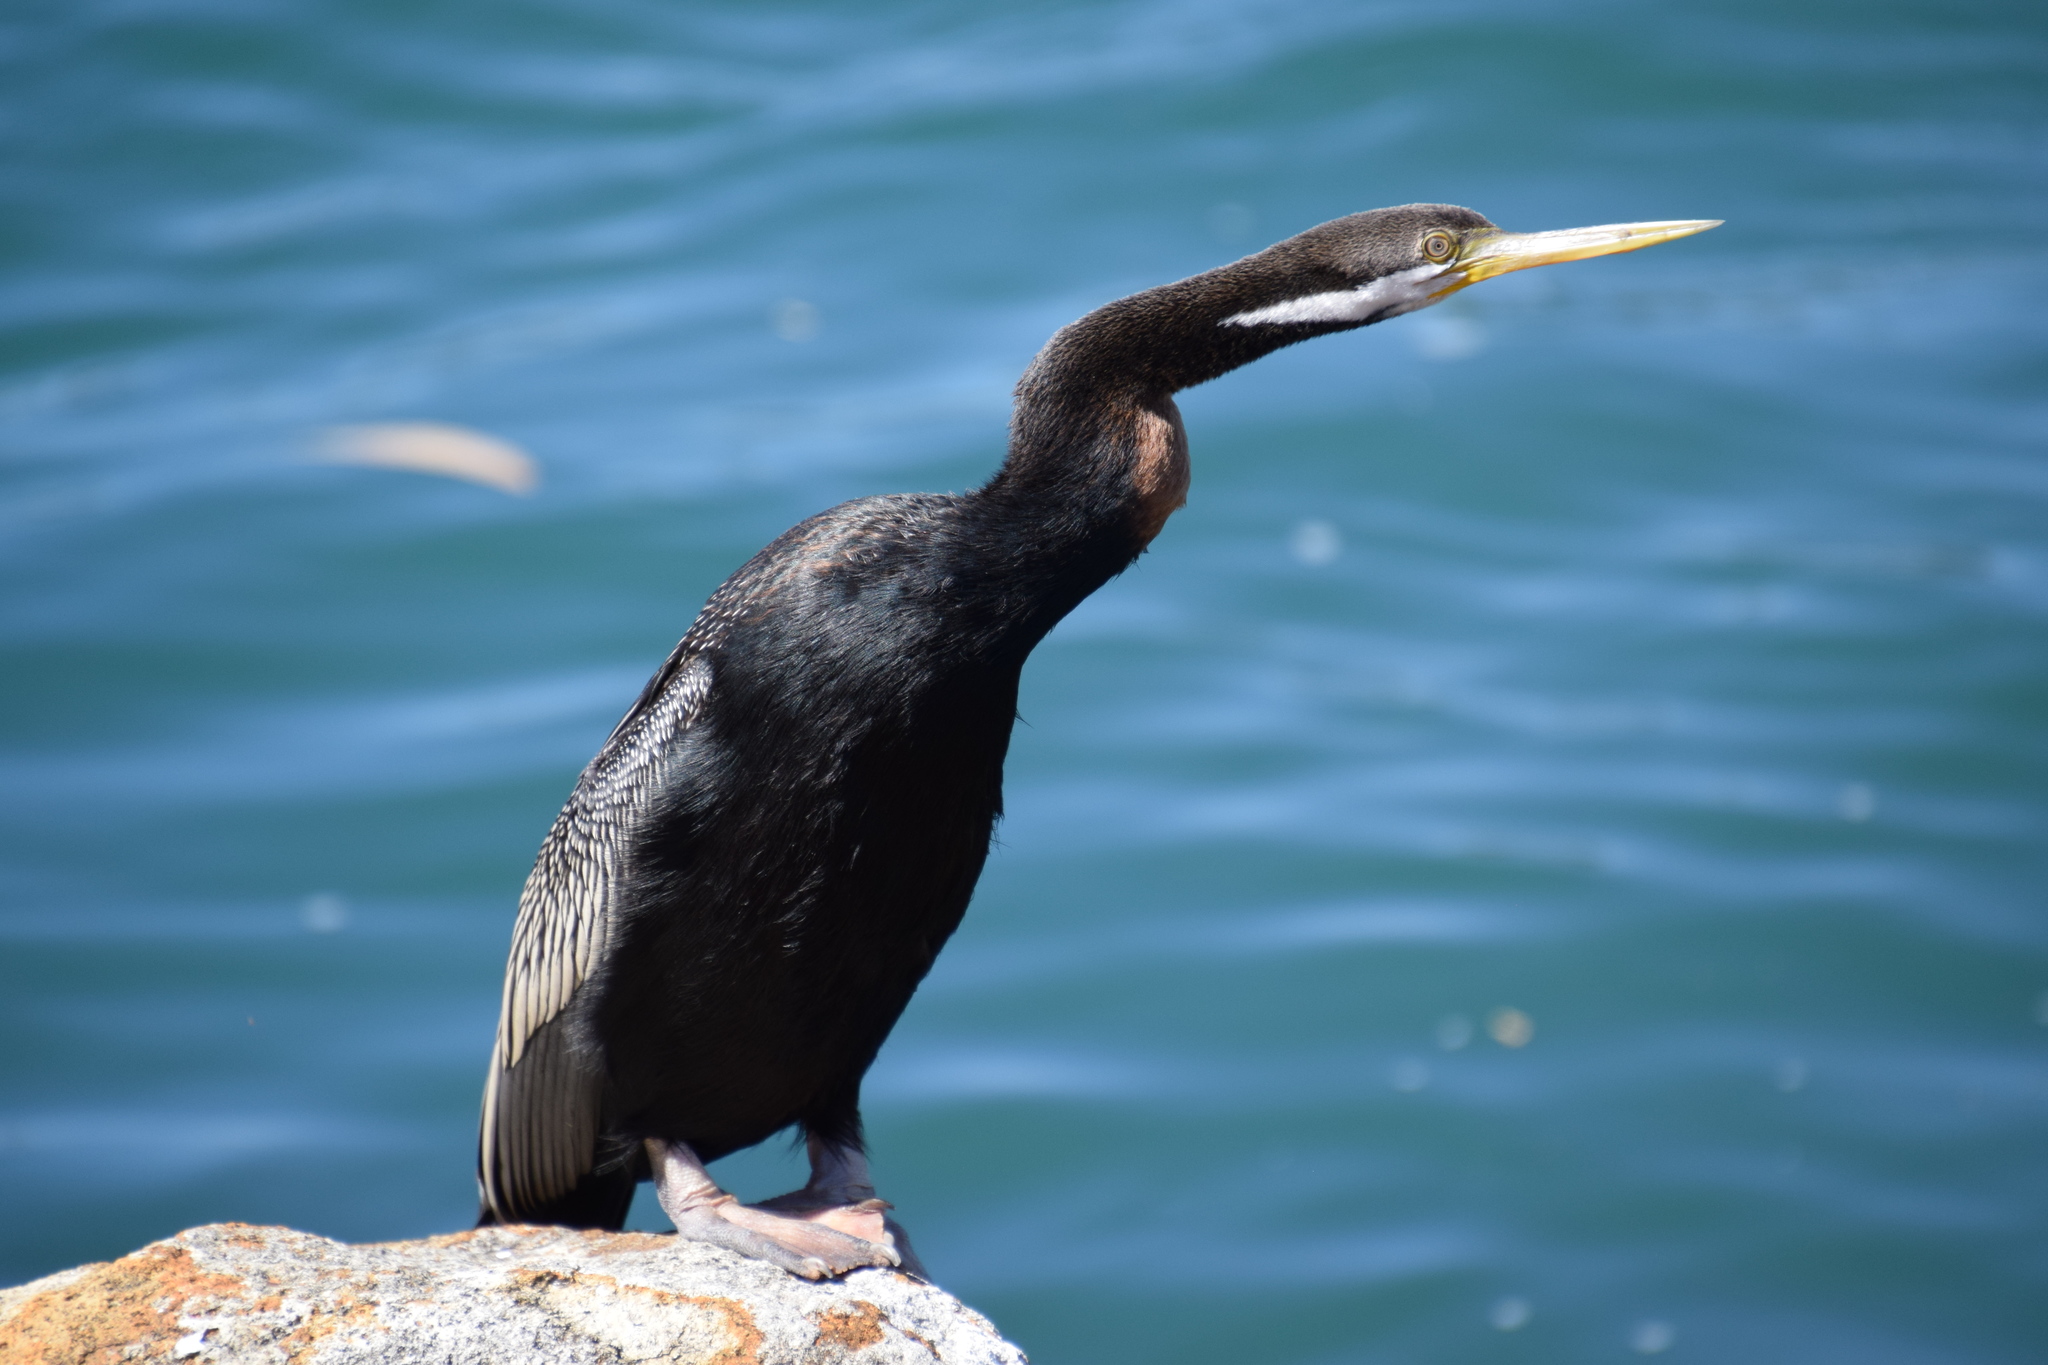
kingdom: Animalia
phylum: Chordata
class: Aves
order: Suliformes
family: Anhingidae
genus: Anhinga
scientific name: Anhinga novaehollandiae
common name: Australasian darter
